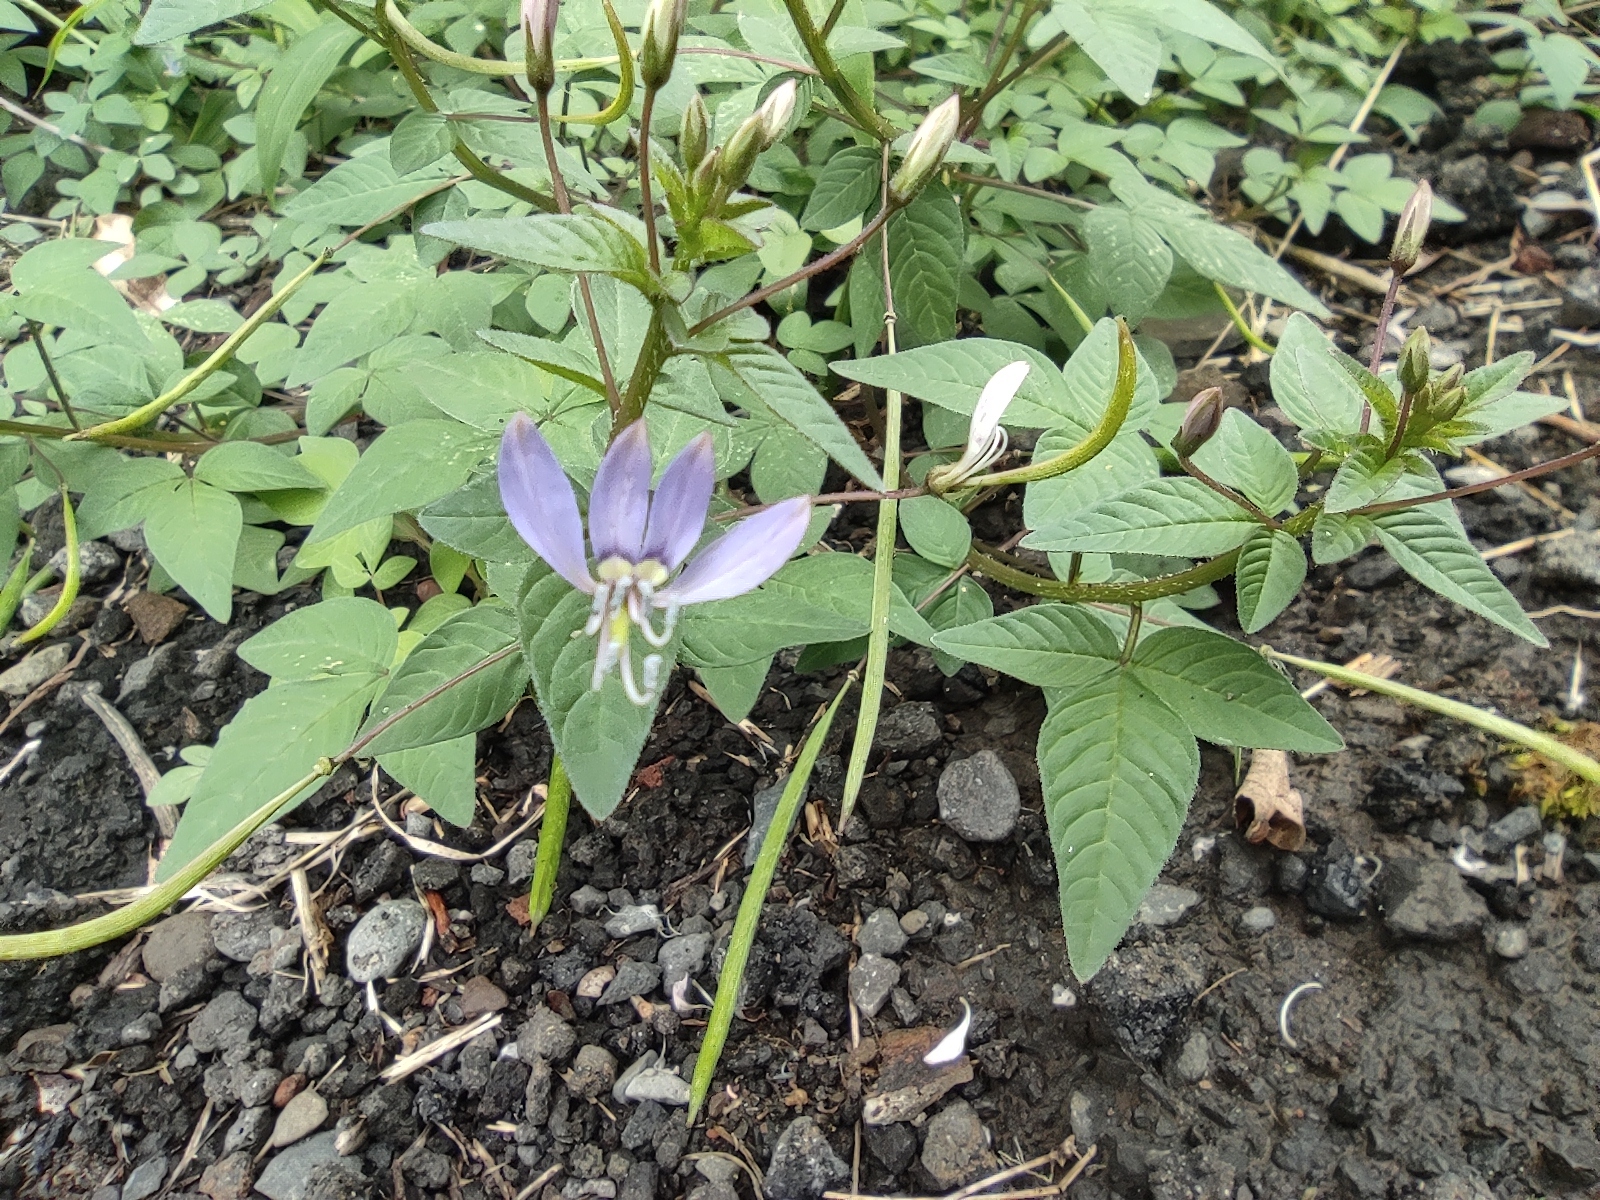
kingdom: Plantae
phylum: Tracheophyta
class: Magnoliopsida
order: Brassicales
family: Cleomaceae
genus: Sieruela
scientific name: Sieruela rutidosperma
